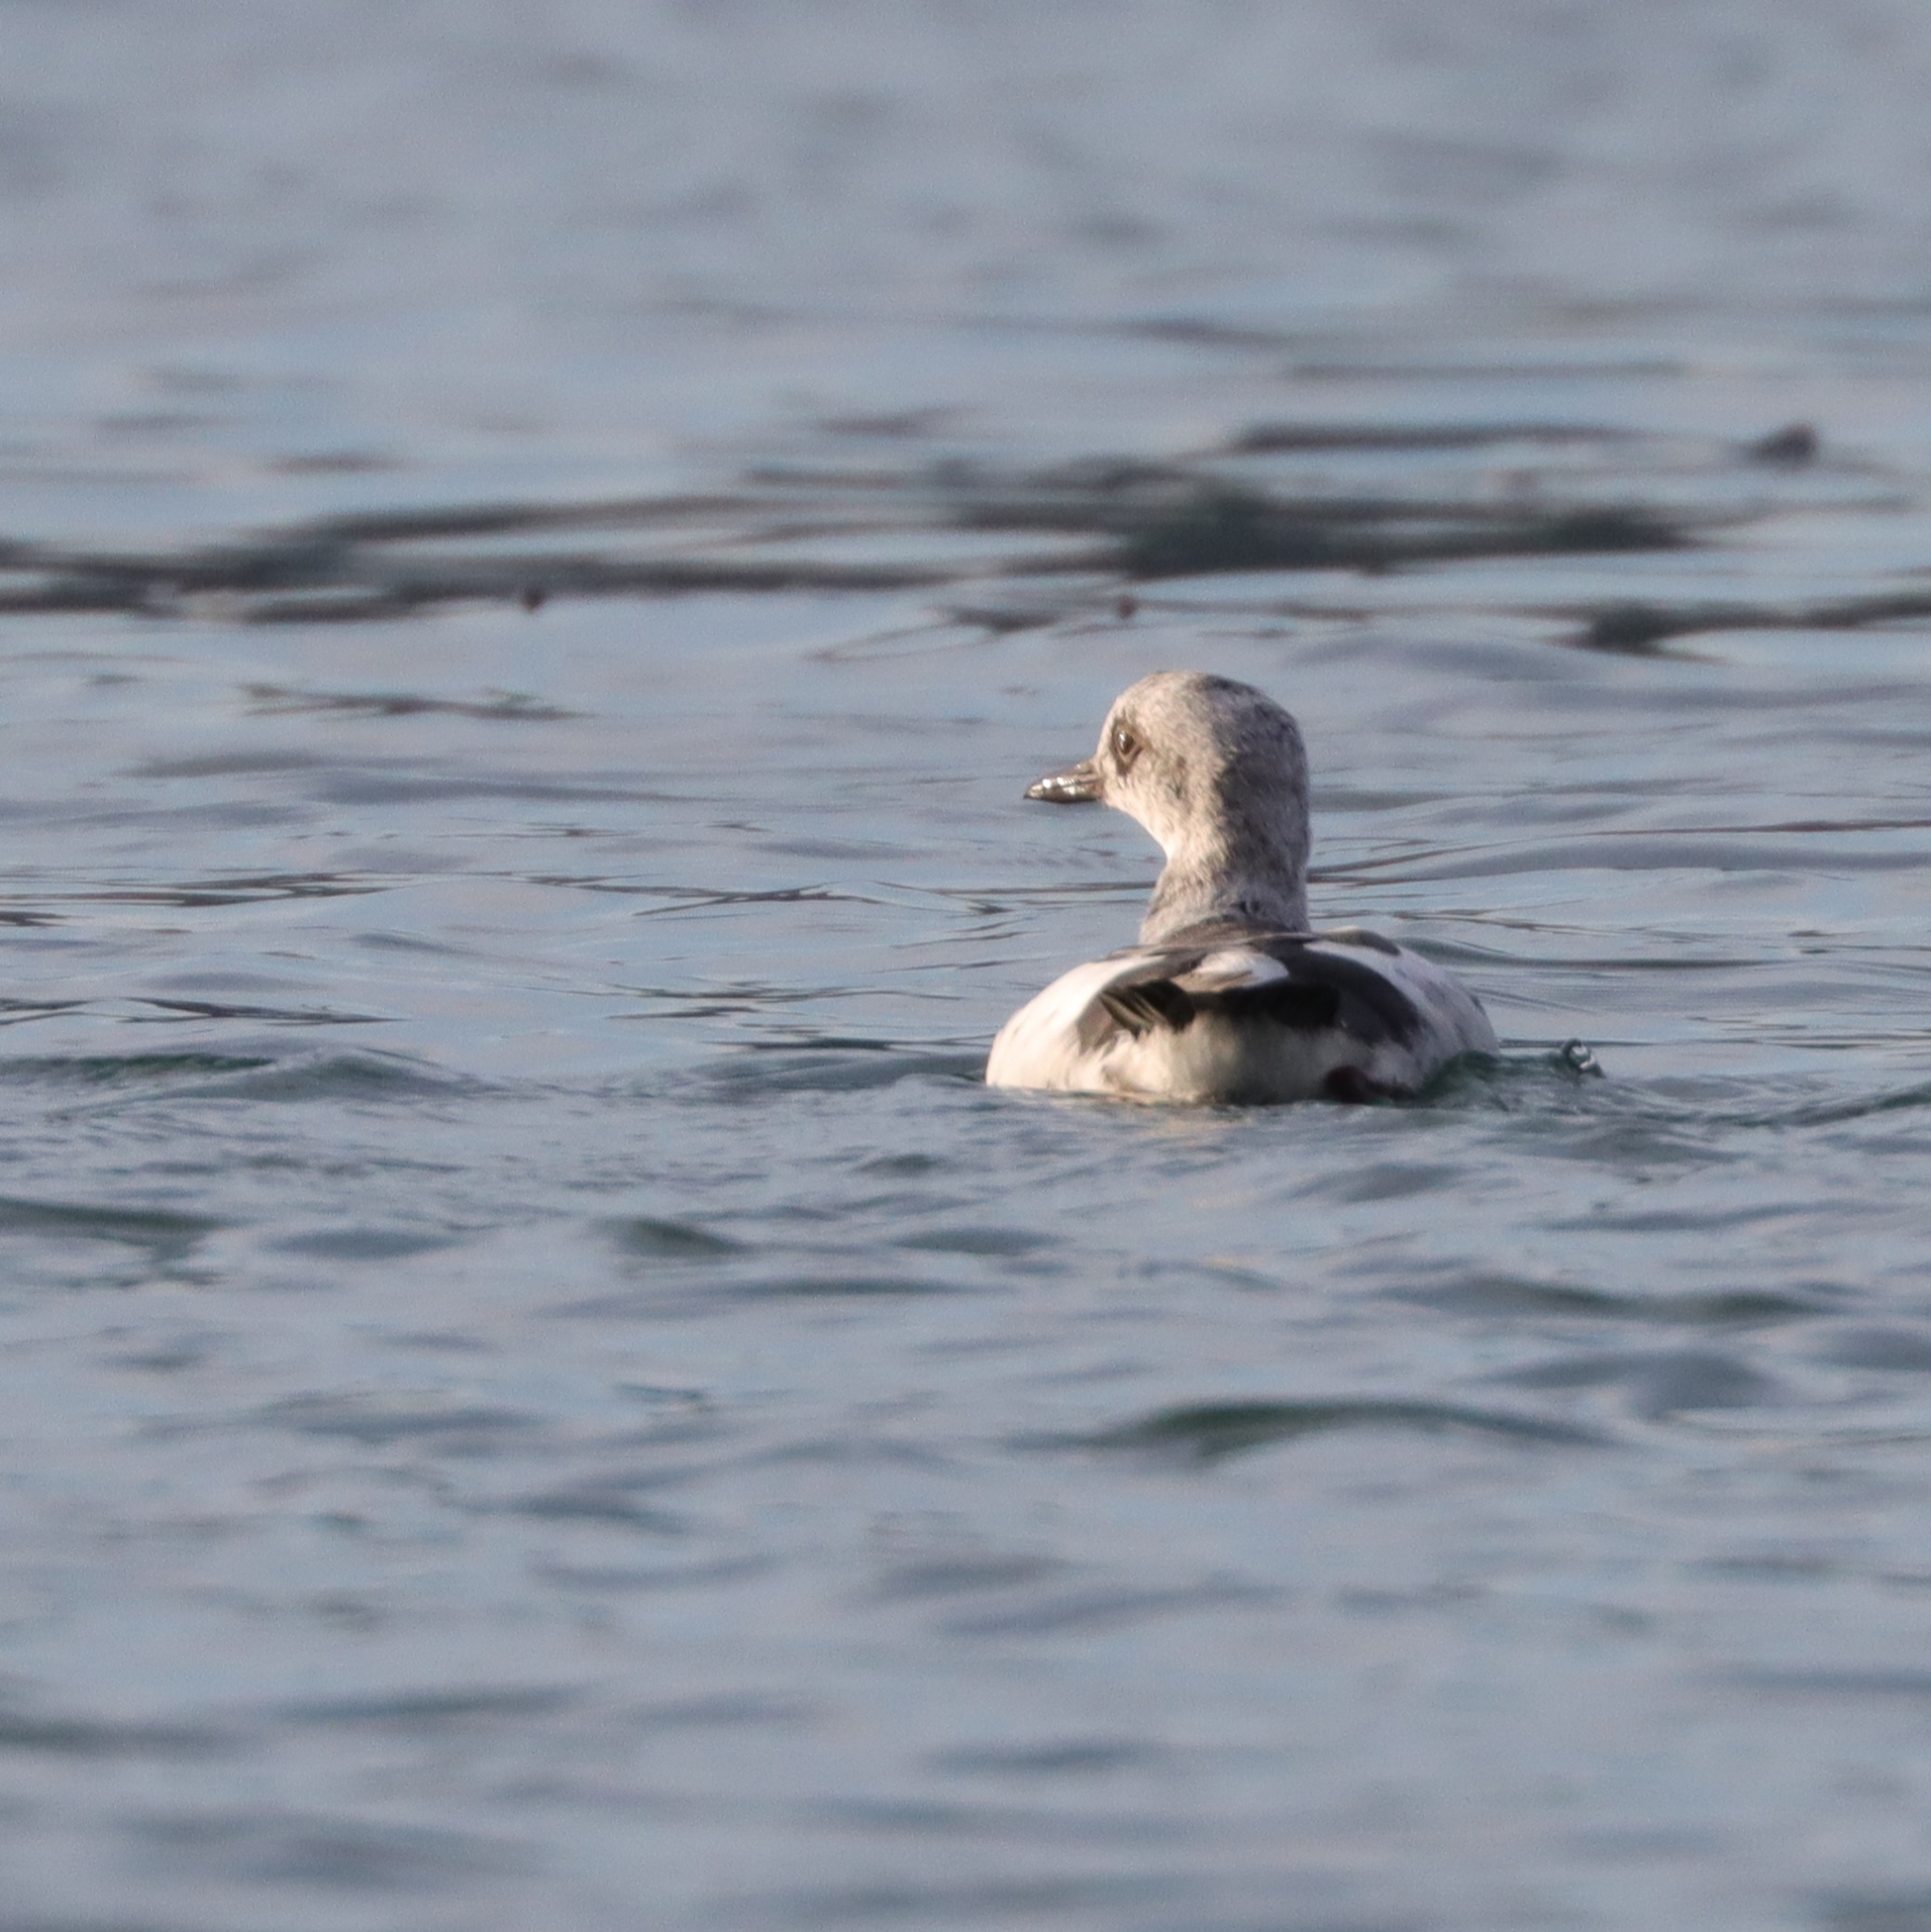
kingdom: Animalia
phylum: Chordata
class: Aves
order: Charadriiformes
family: Alcidae
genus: Cepphus
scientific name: Cepphus columba
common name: Pigeon guillemot
